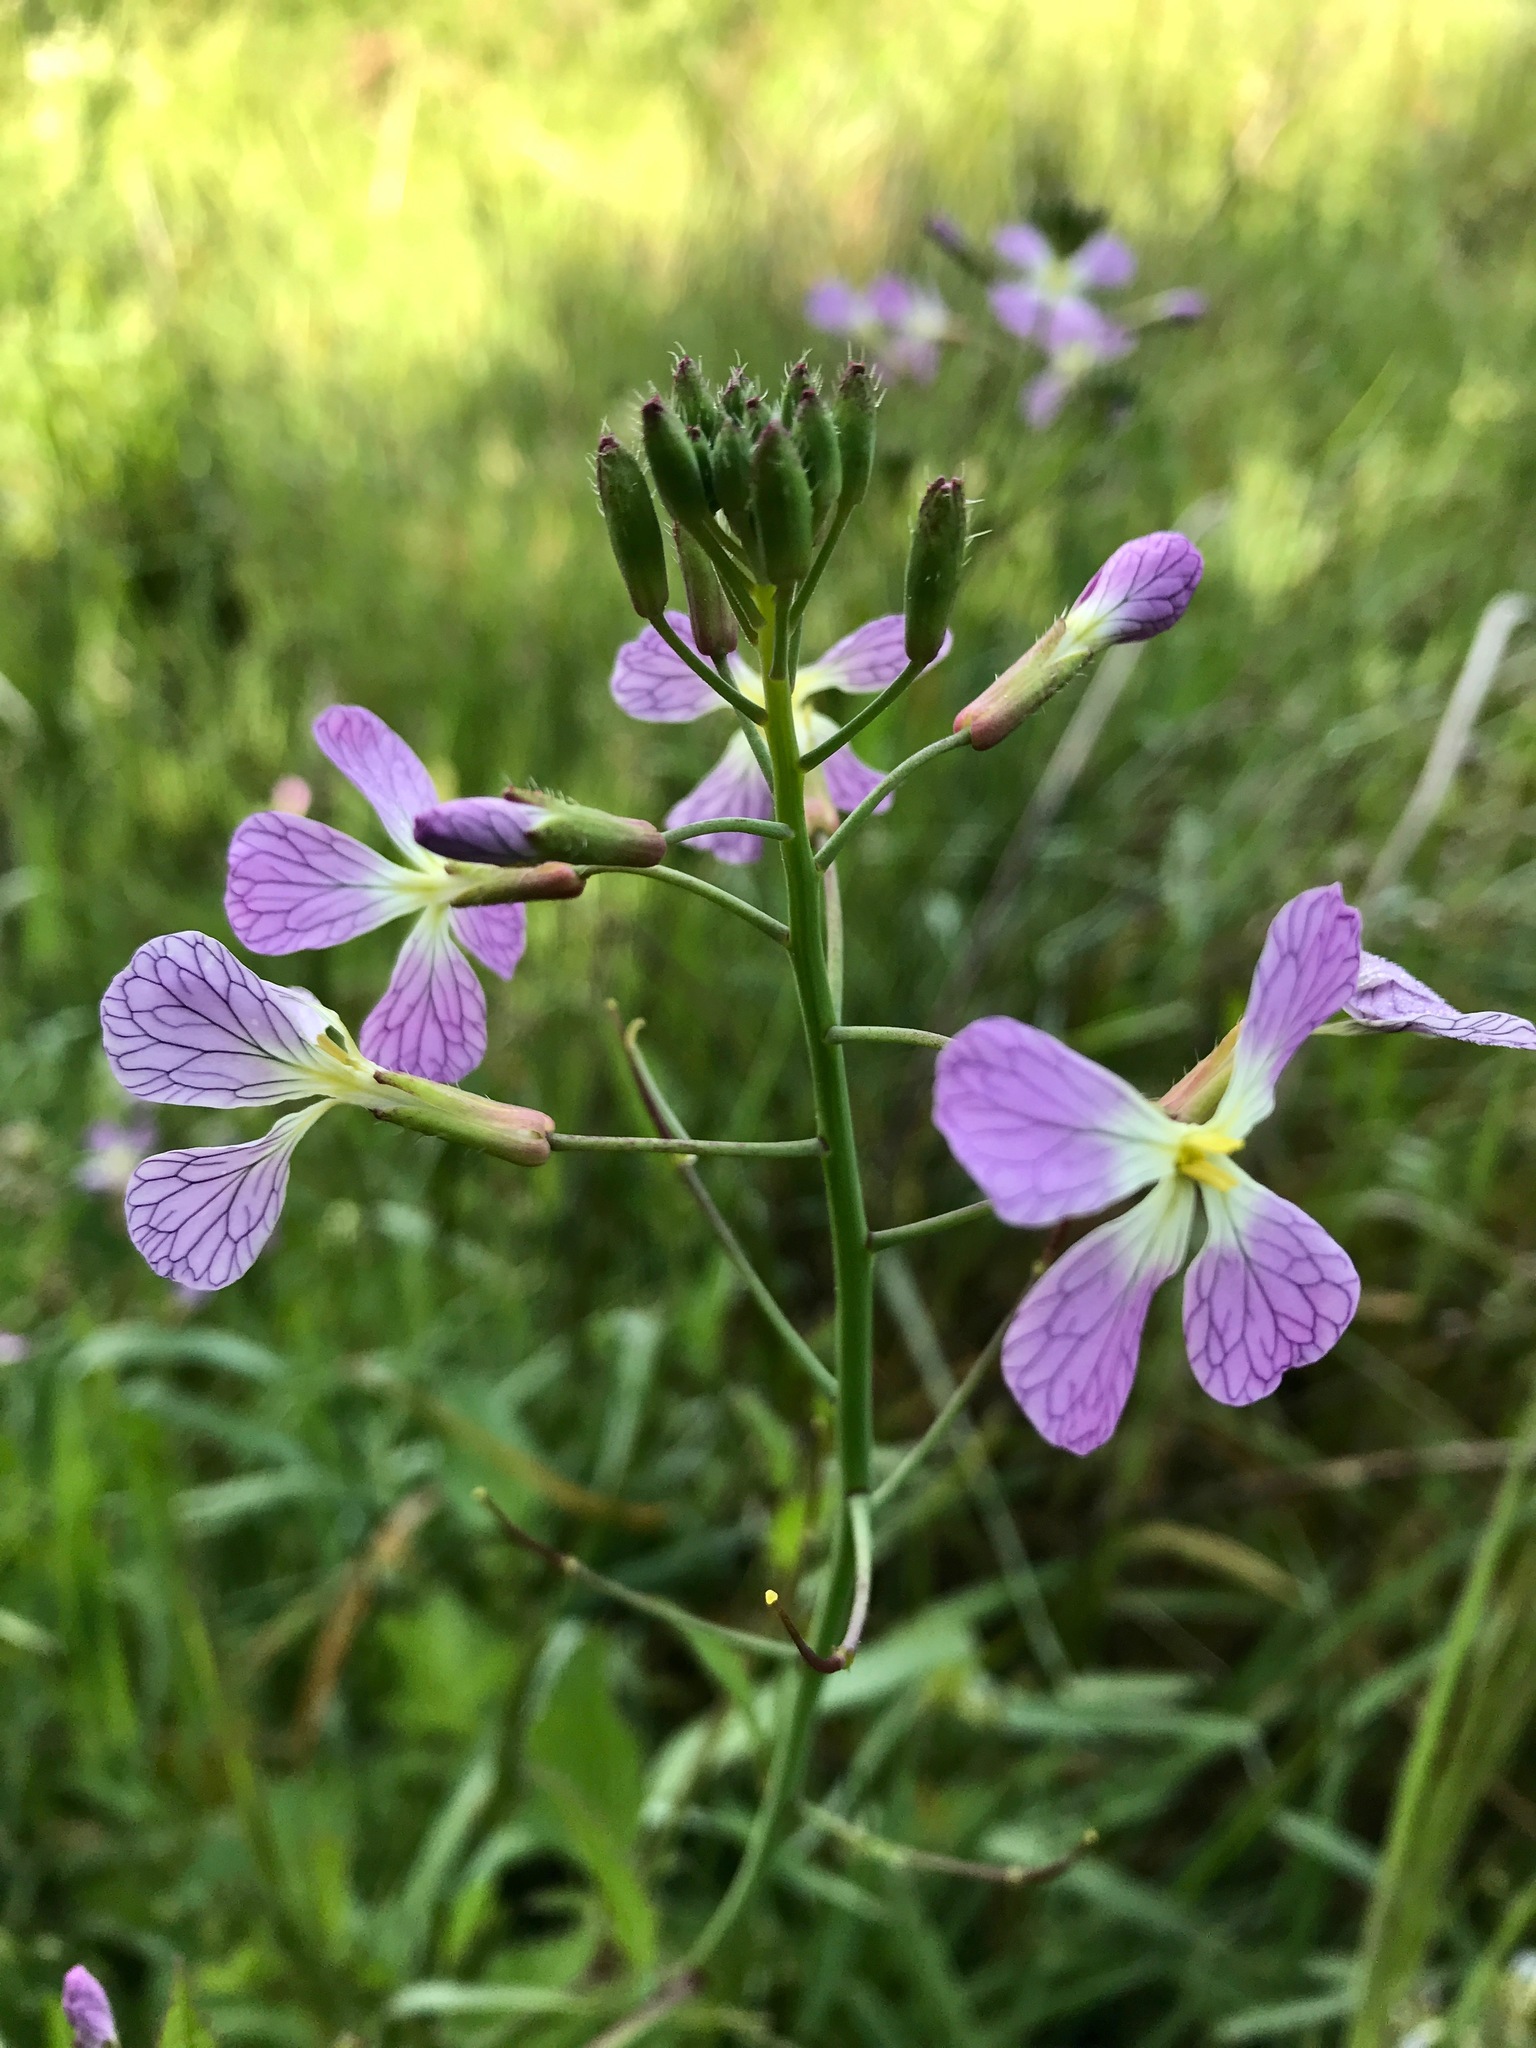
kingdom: Plantae
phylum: Tracheophyta
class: Magnoliopsida
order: Brassicales
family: Brassicaceae
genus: Raphanus
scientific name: Raphanus sativus
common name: Cultivated radish
